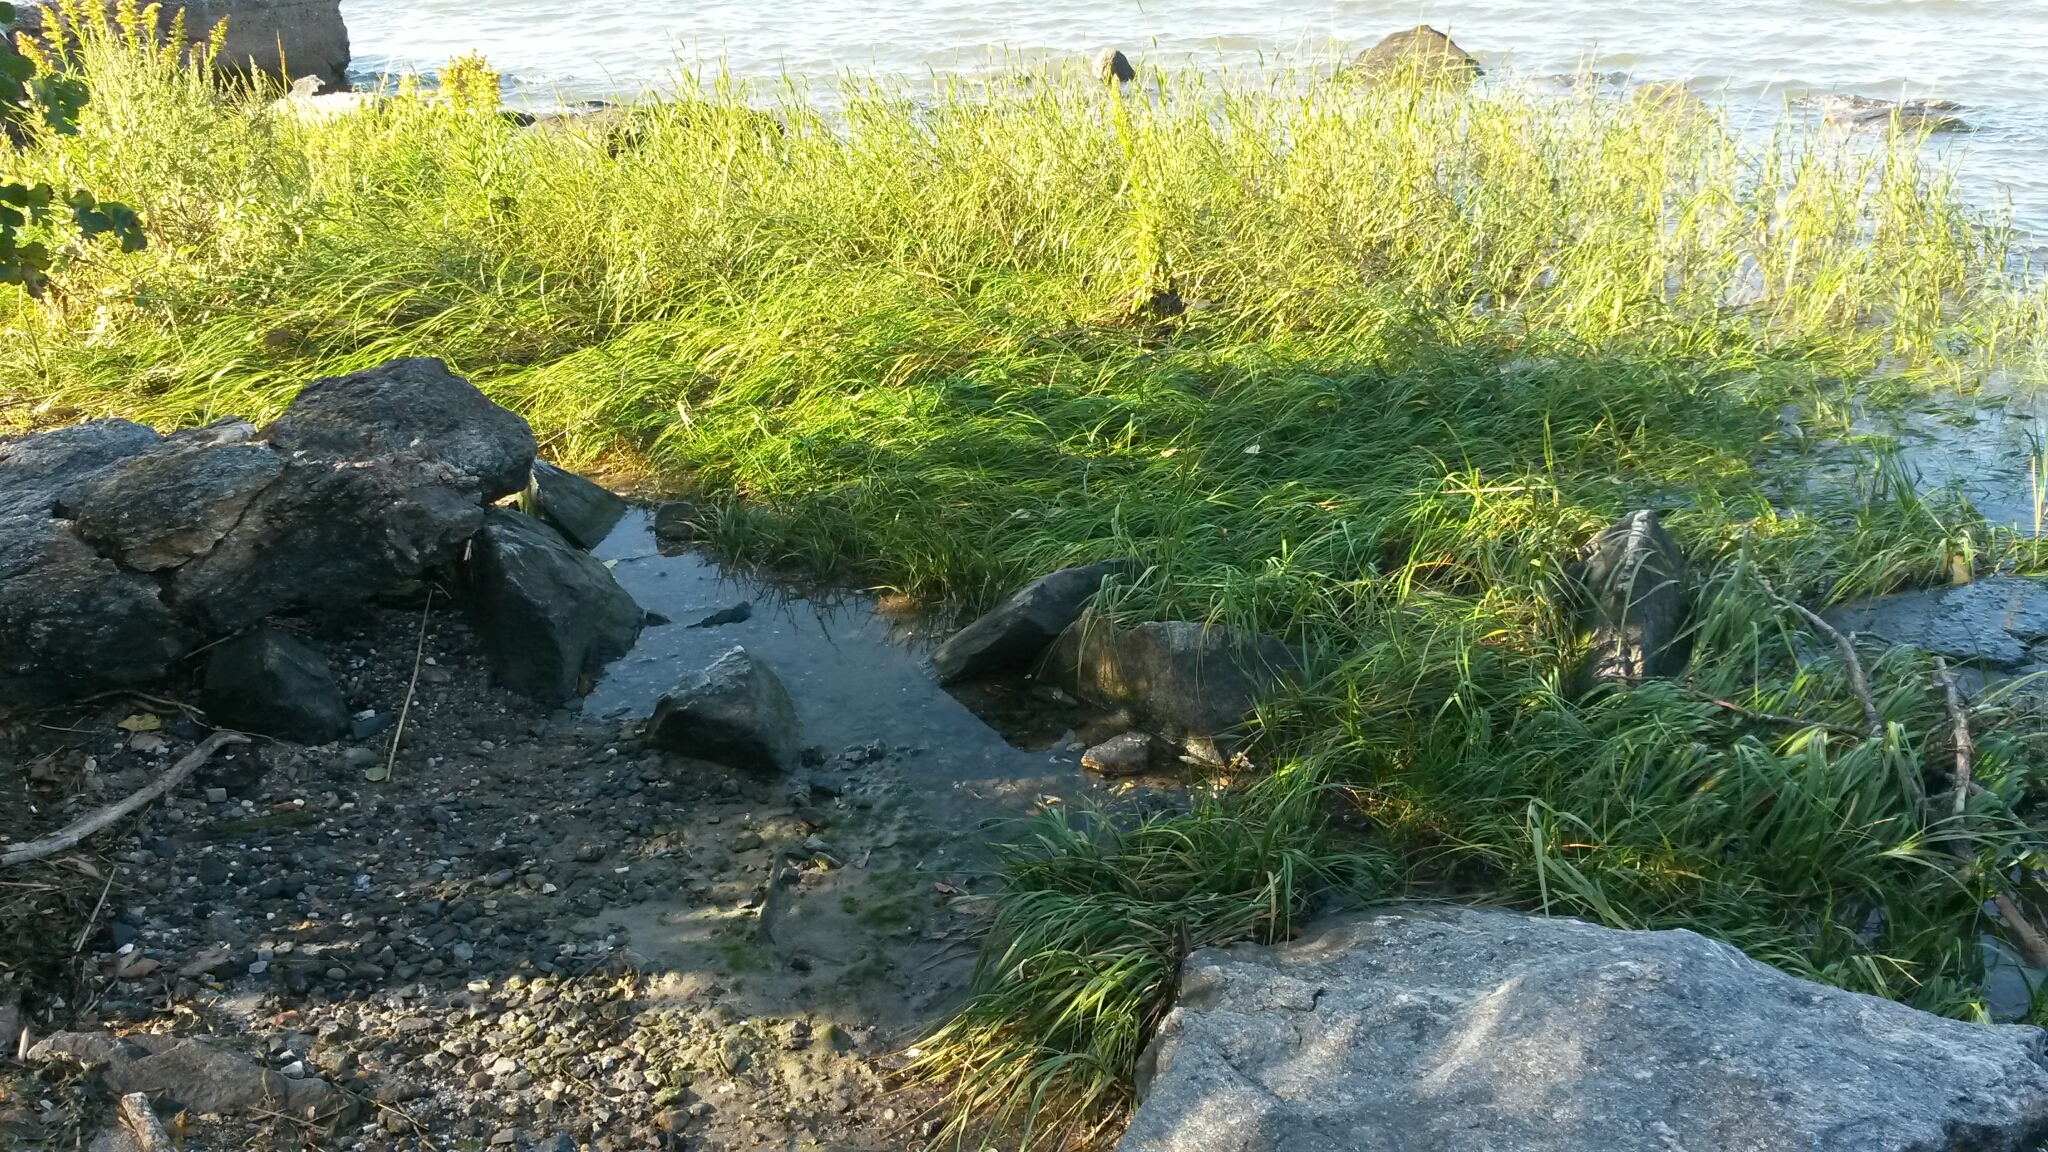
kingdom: Animalia
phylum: Arthropoda
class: Malacostraca
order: Decapoda
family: Varunidae
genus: Hemigrapsus
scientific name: Hemigrapsus sanguineus
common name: Asian shore crab
